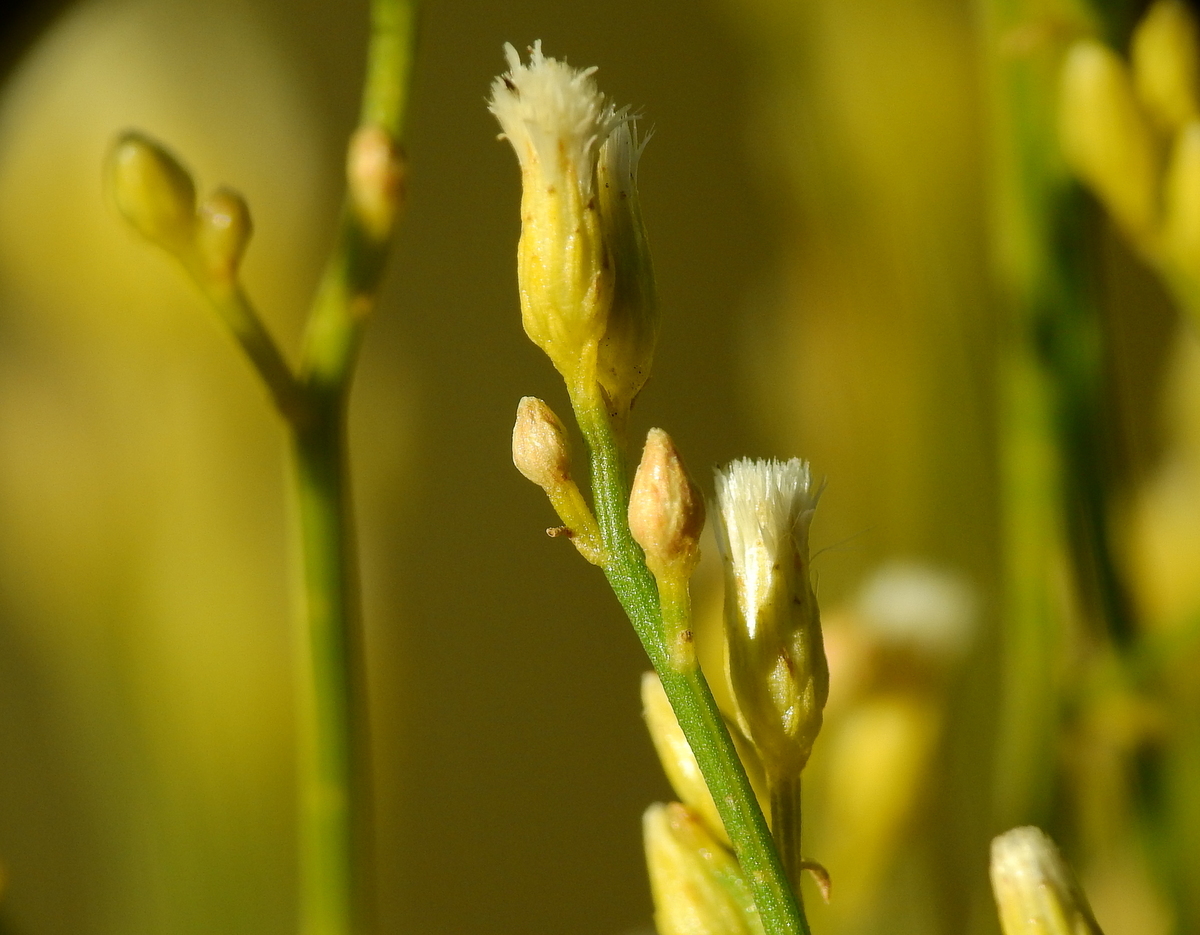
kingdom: Plantae
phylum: Tracheophyta
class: Magnoliopsida
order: Asterales
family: Asteraceae
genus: Pseudobaccharis
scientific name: Pseudobaccharis spartioides
